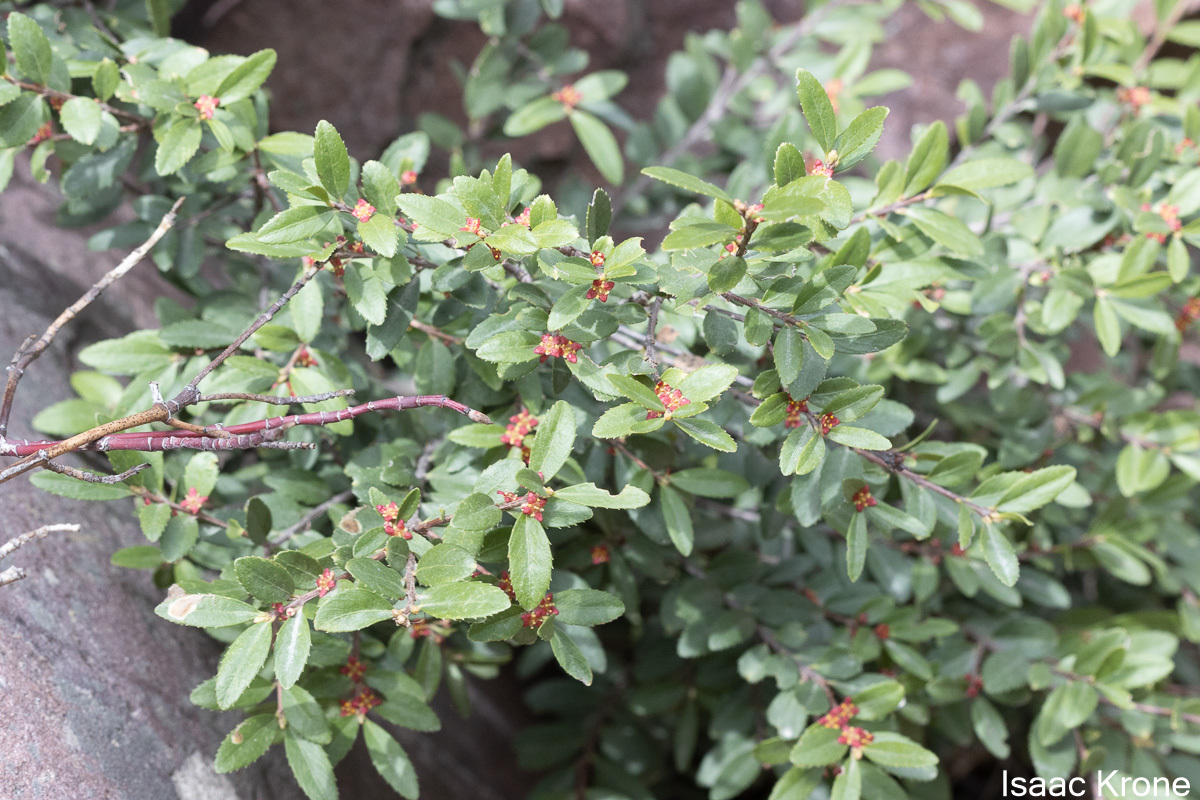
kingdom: Plantae
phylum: Tracheophyta
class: Magnoliopsida
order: Celastrales
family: Celastraceae
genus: Paxistima
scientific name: Paxistima myrsinites
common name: Mountain-lover
